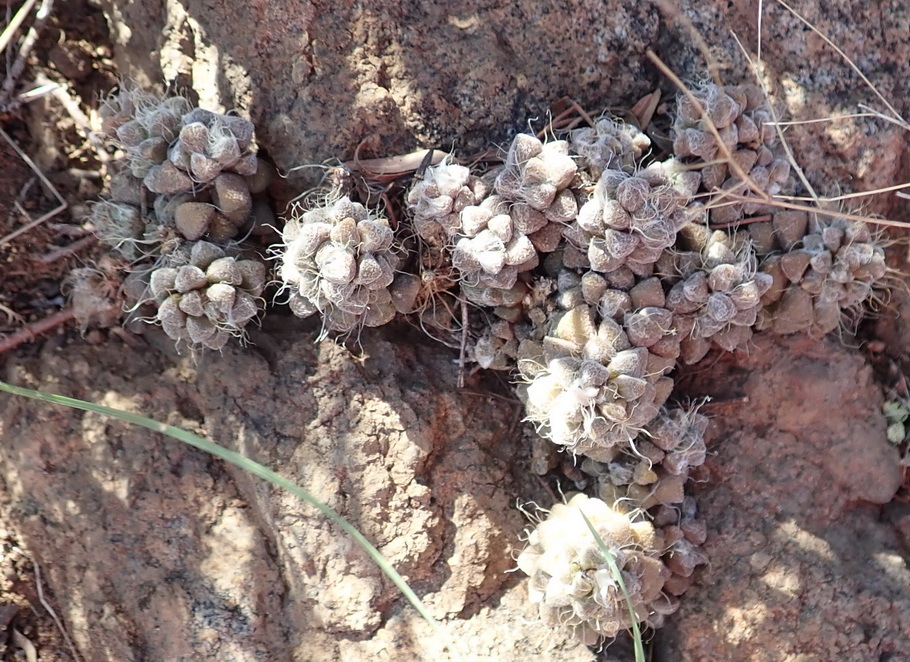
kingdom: Plantae
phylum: Tracheophyta
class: Magnoliopsida
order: Caryophyllales
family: Anacampserotaceae
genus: Anacampseros
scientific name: Anacampseros filamentosa
